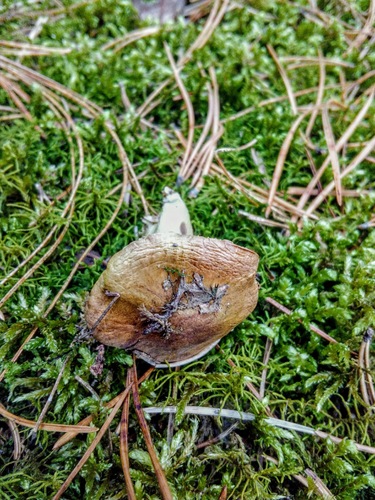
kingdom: Fungi
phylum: Basidiomycota
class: Agaricomycetes
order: Agaricales
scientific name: Agaricales
